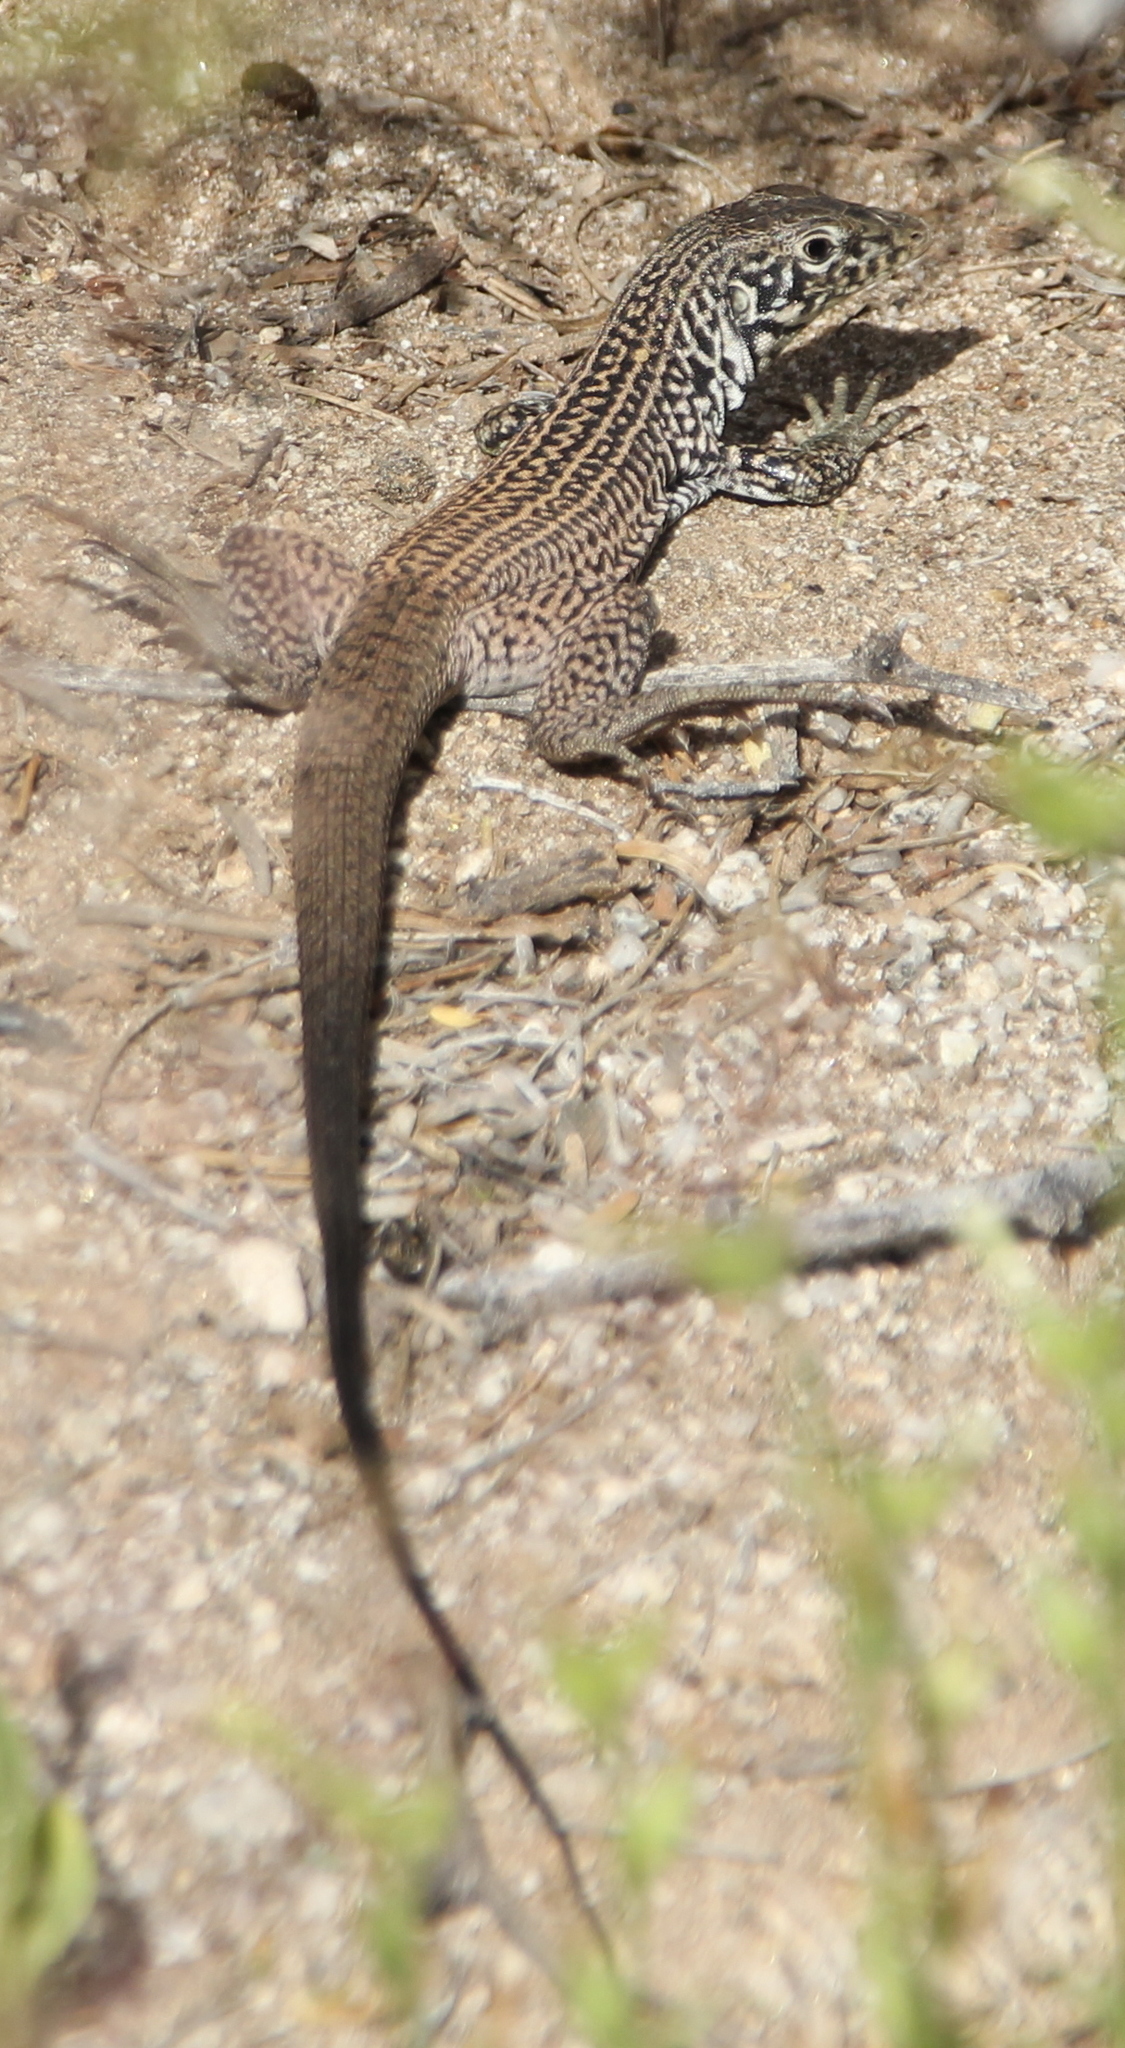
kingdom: Animalia
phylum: Chordata
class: Squamata
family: Teiidae
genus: Aspidoscelis
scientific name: Aspidoscelis tigris
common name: Tiger whiptail
